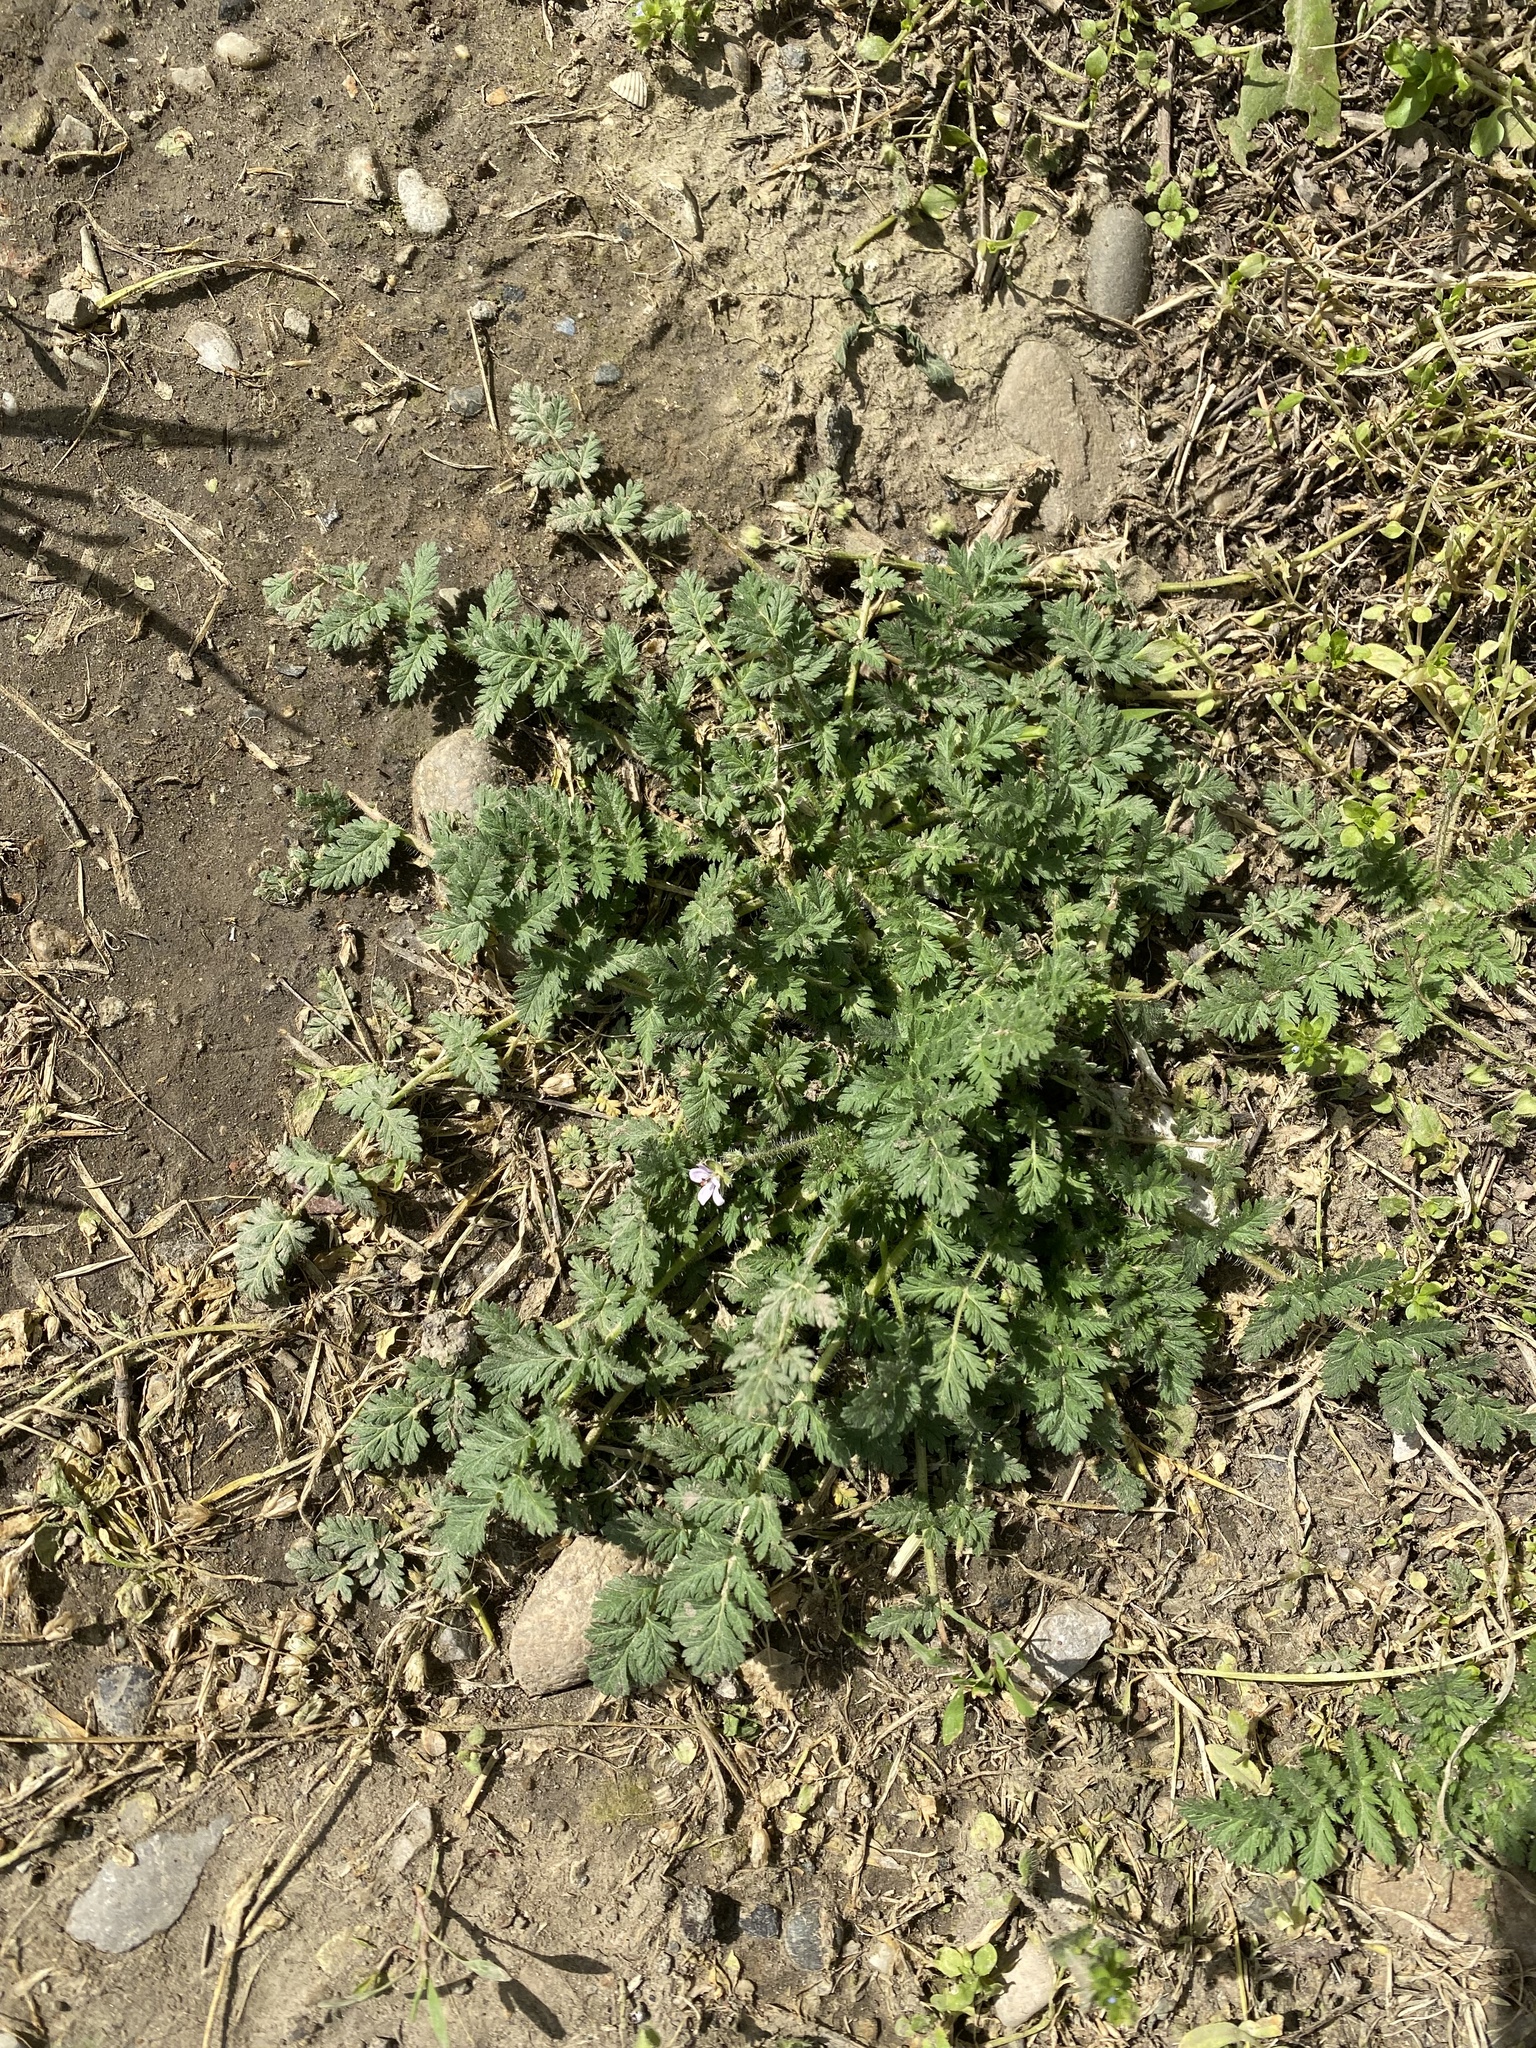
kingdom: Plantae
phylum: Tracheophyta
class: Magnoliopsida
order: Geraniales
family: Geraniaceae
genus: Erodium
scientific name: Erodium cicutarium
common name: Common stork's-bill
